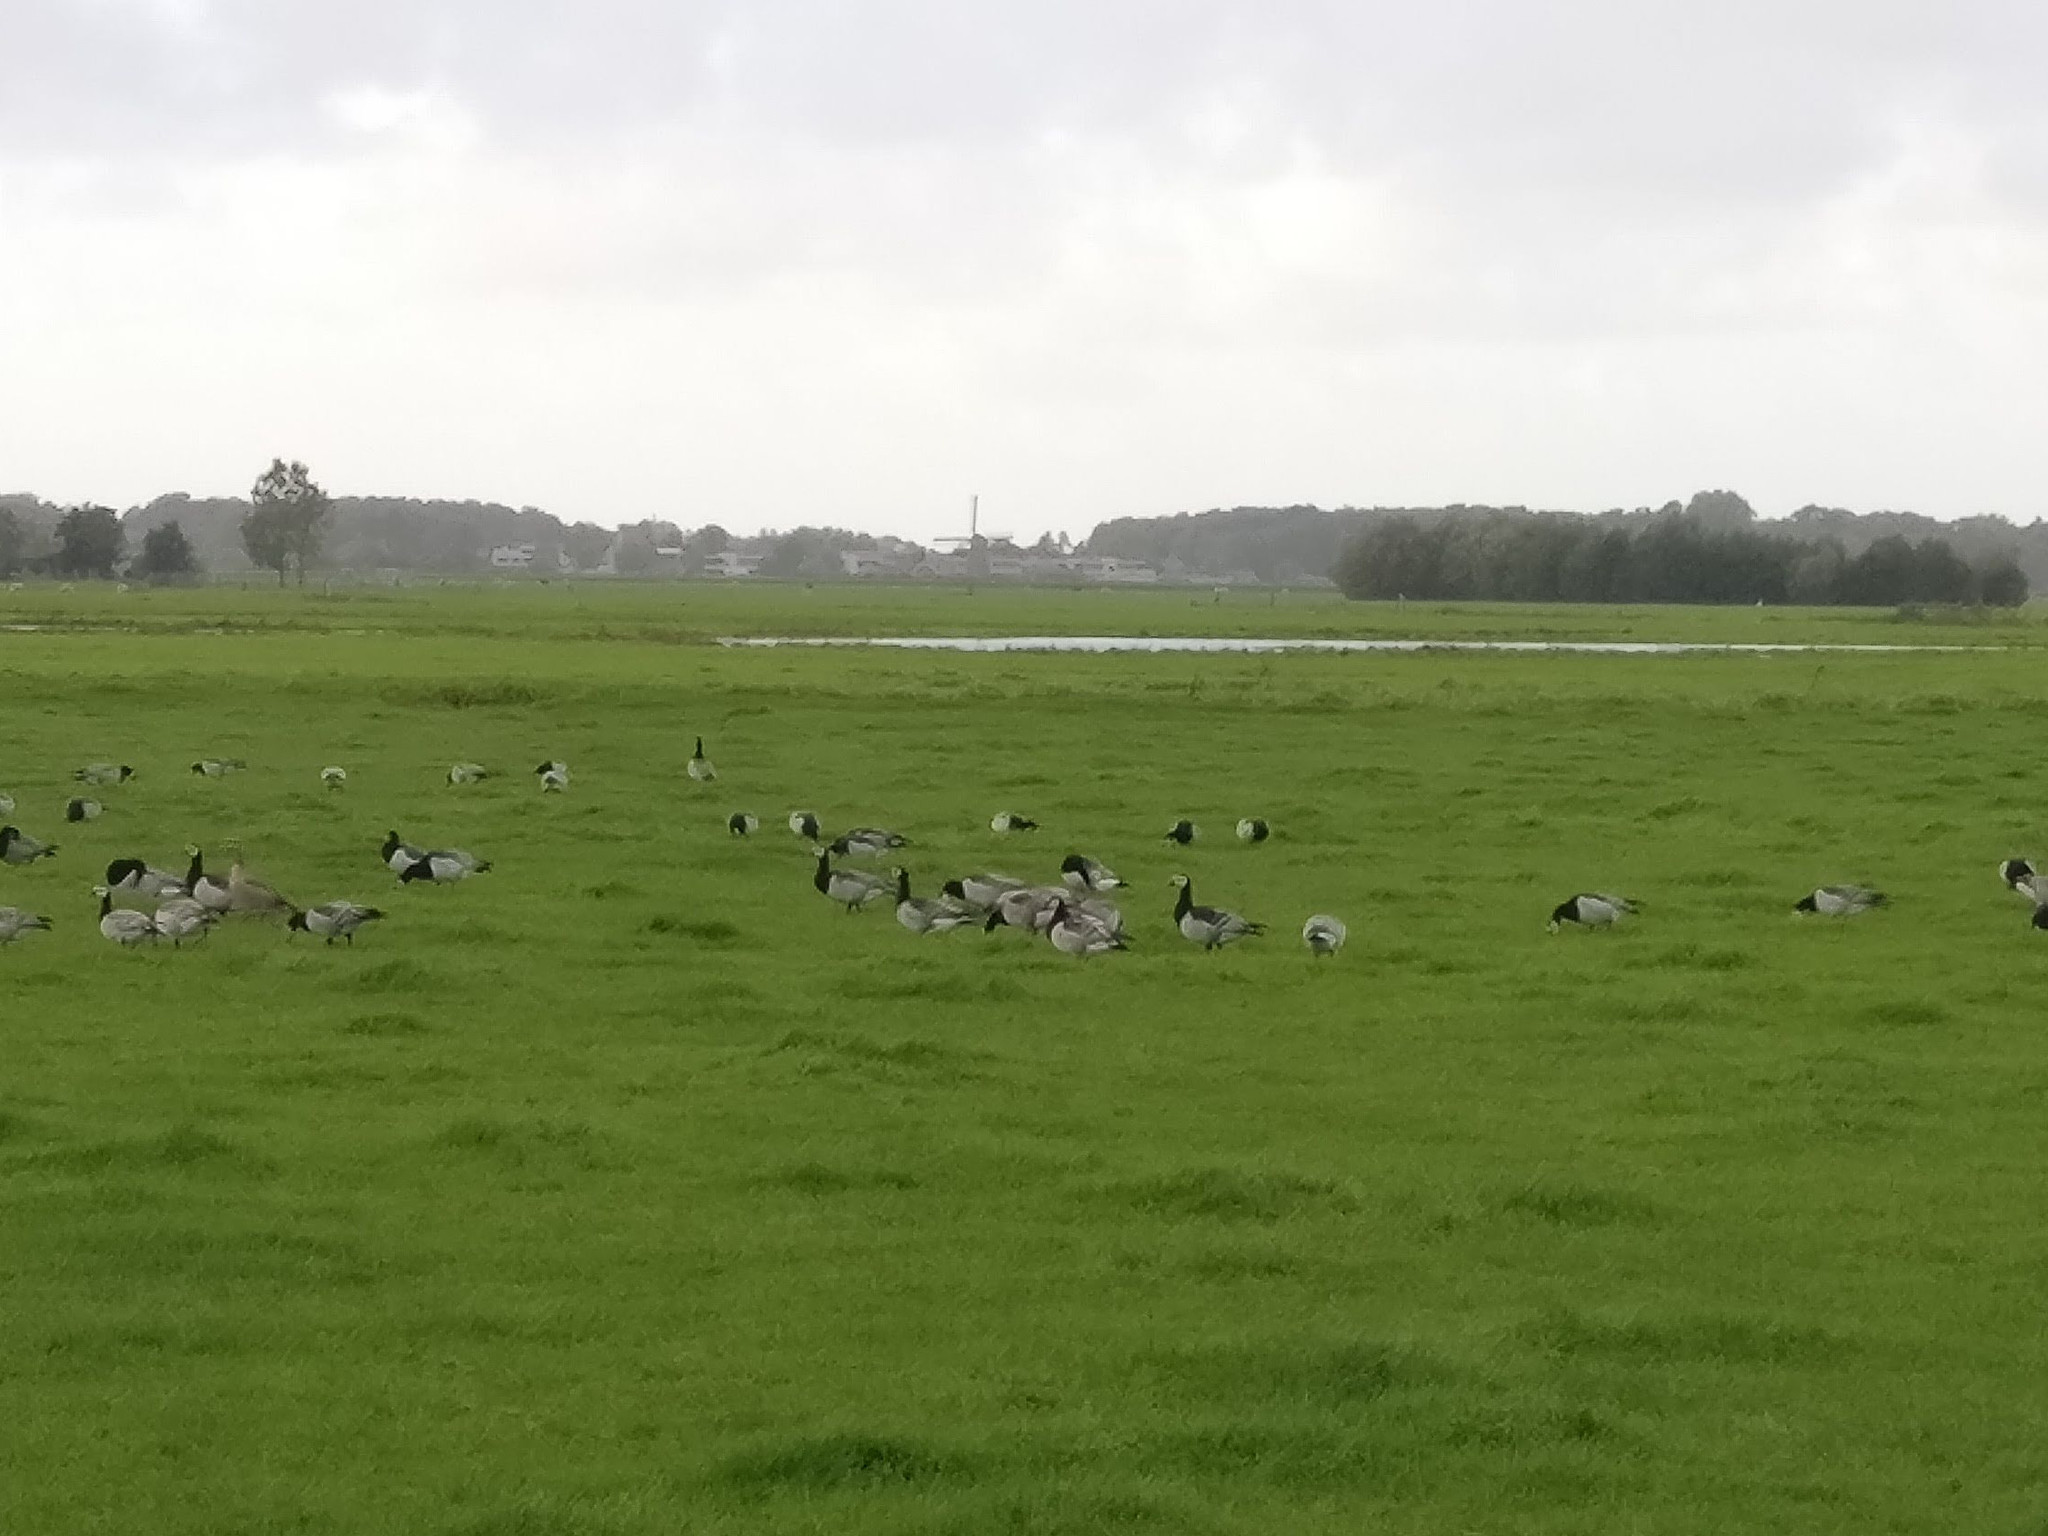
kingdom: Animalia
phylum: Chordata
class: Aves
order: Anseriformes
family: Anatidae
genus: Branta
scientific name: Branta leucopsis
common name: Barnacle goose
